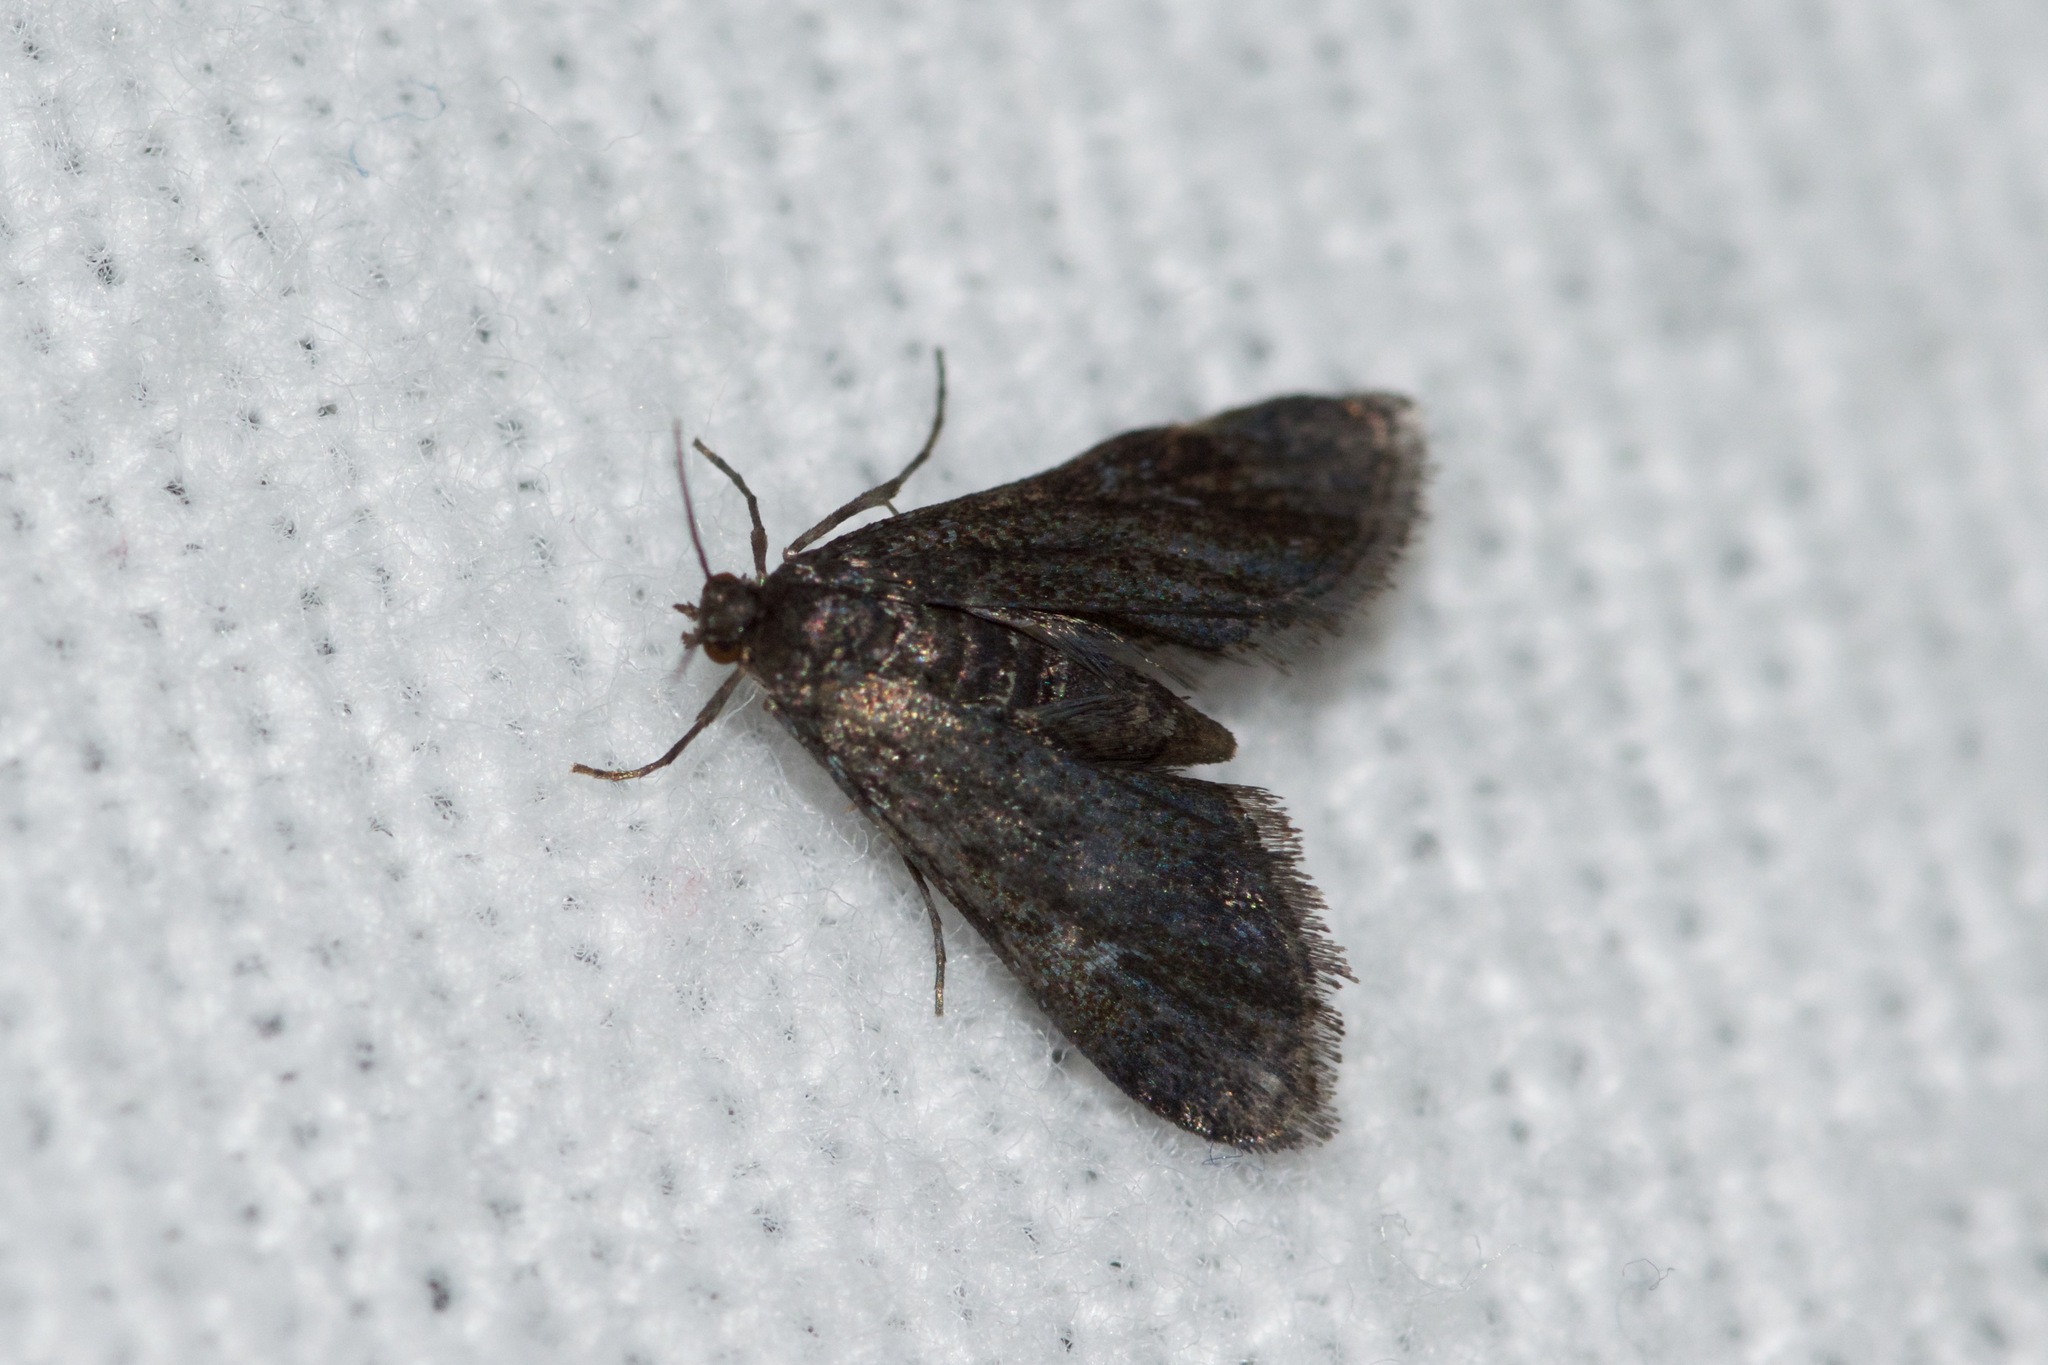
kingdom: Animalia
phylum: Arthropoda
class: Insecta
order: Lepidoptera
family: Crambidae
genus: Elophila
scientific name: Elophila tinealis
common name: Black duckweed moth
